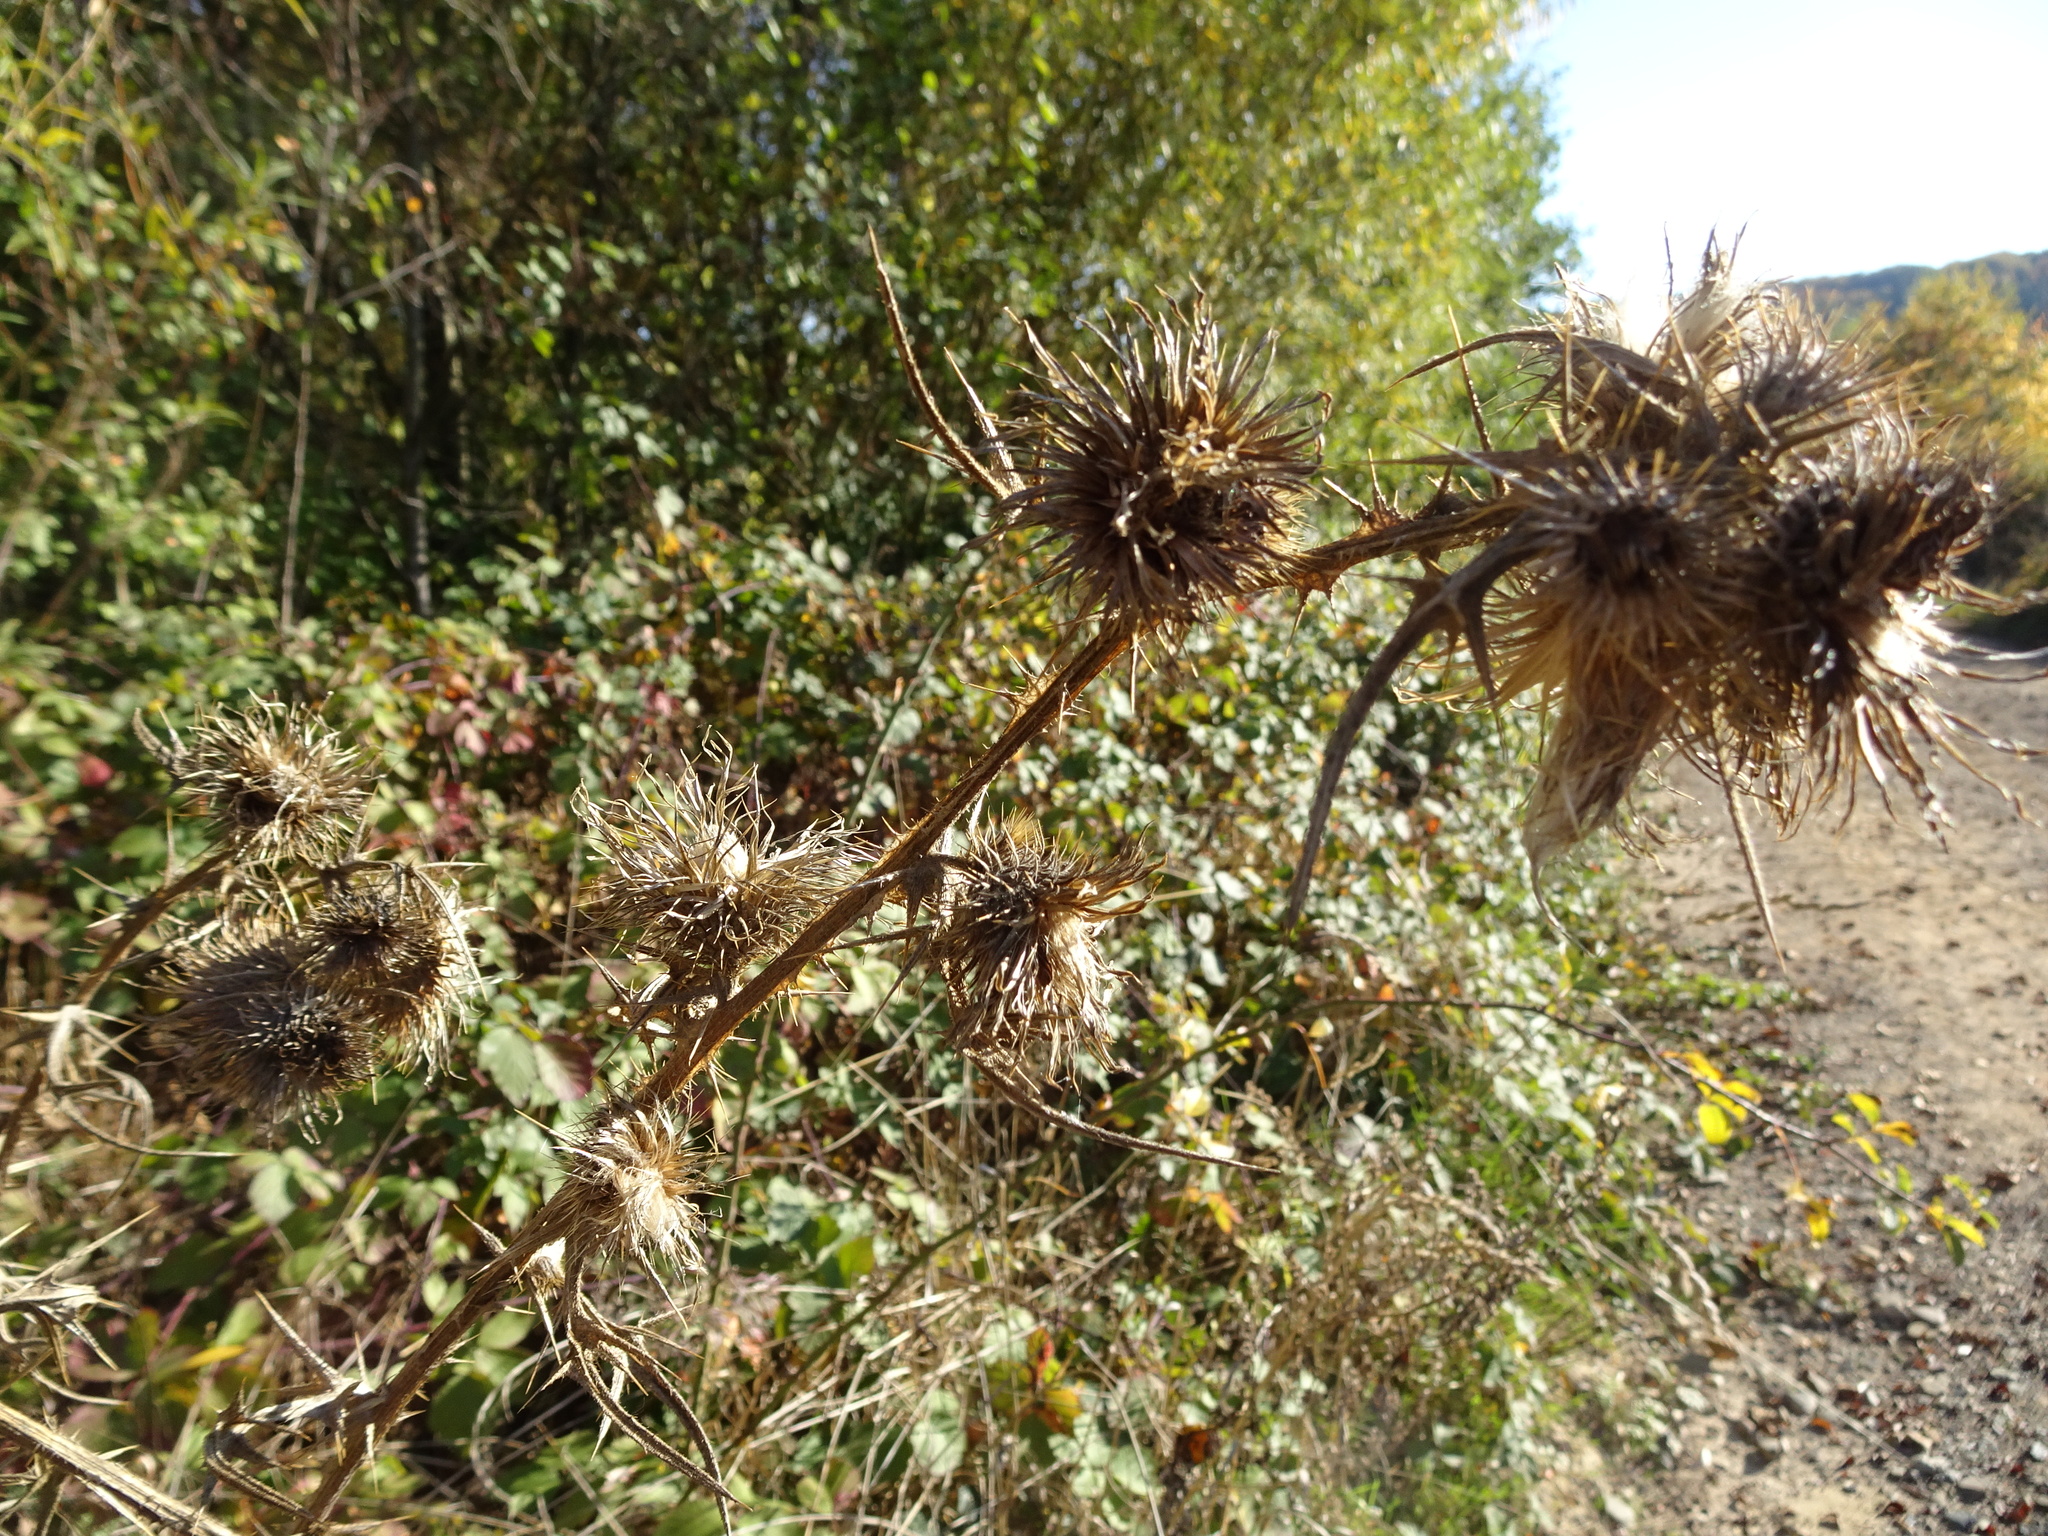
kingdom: Plantae
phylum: Tracheophyta
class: Magnoliopsida
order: Asterales
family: Asteraceae
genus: Cirsium
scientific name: Cirsium vulgare
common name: Bull thistle
